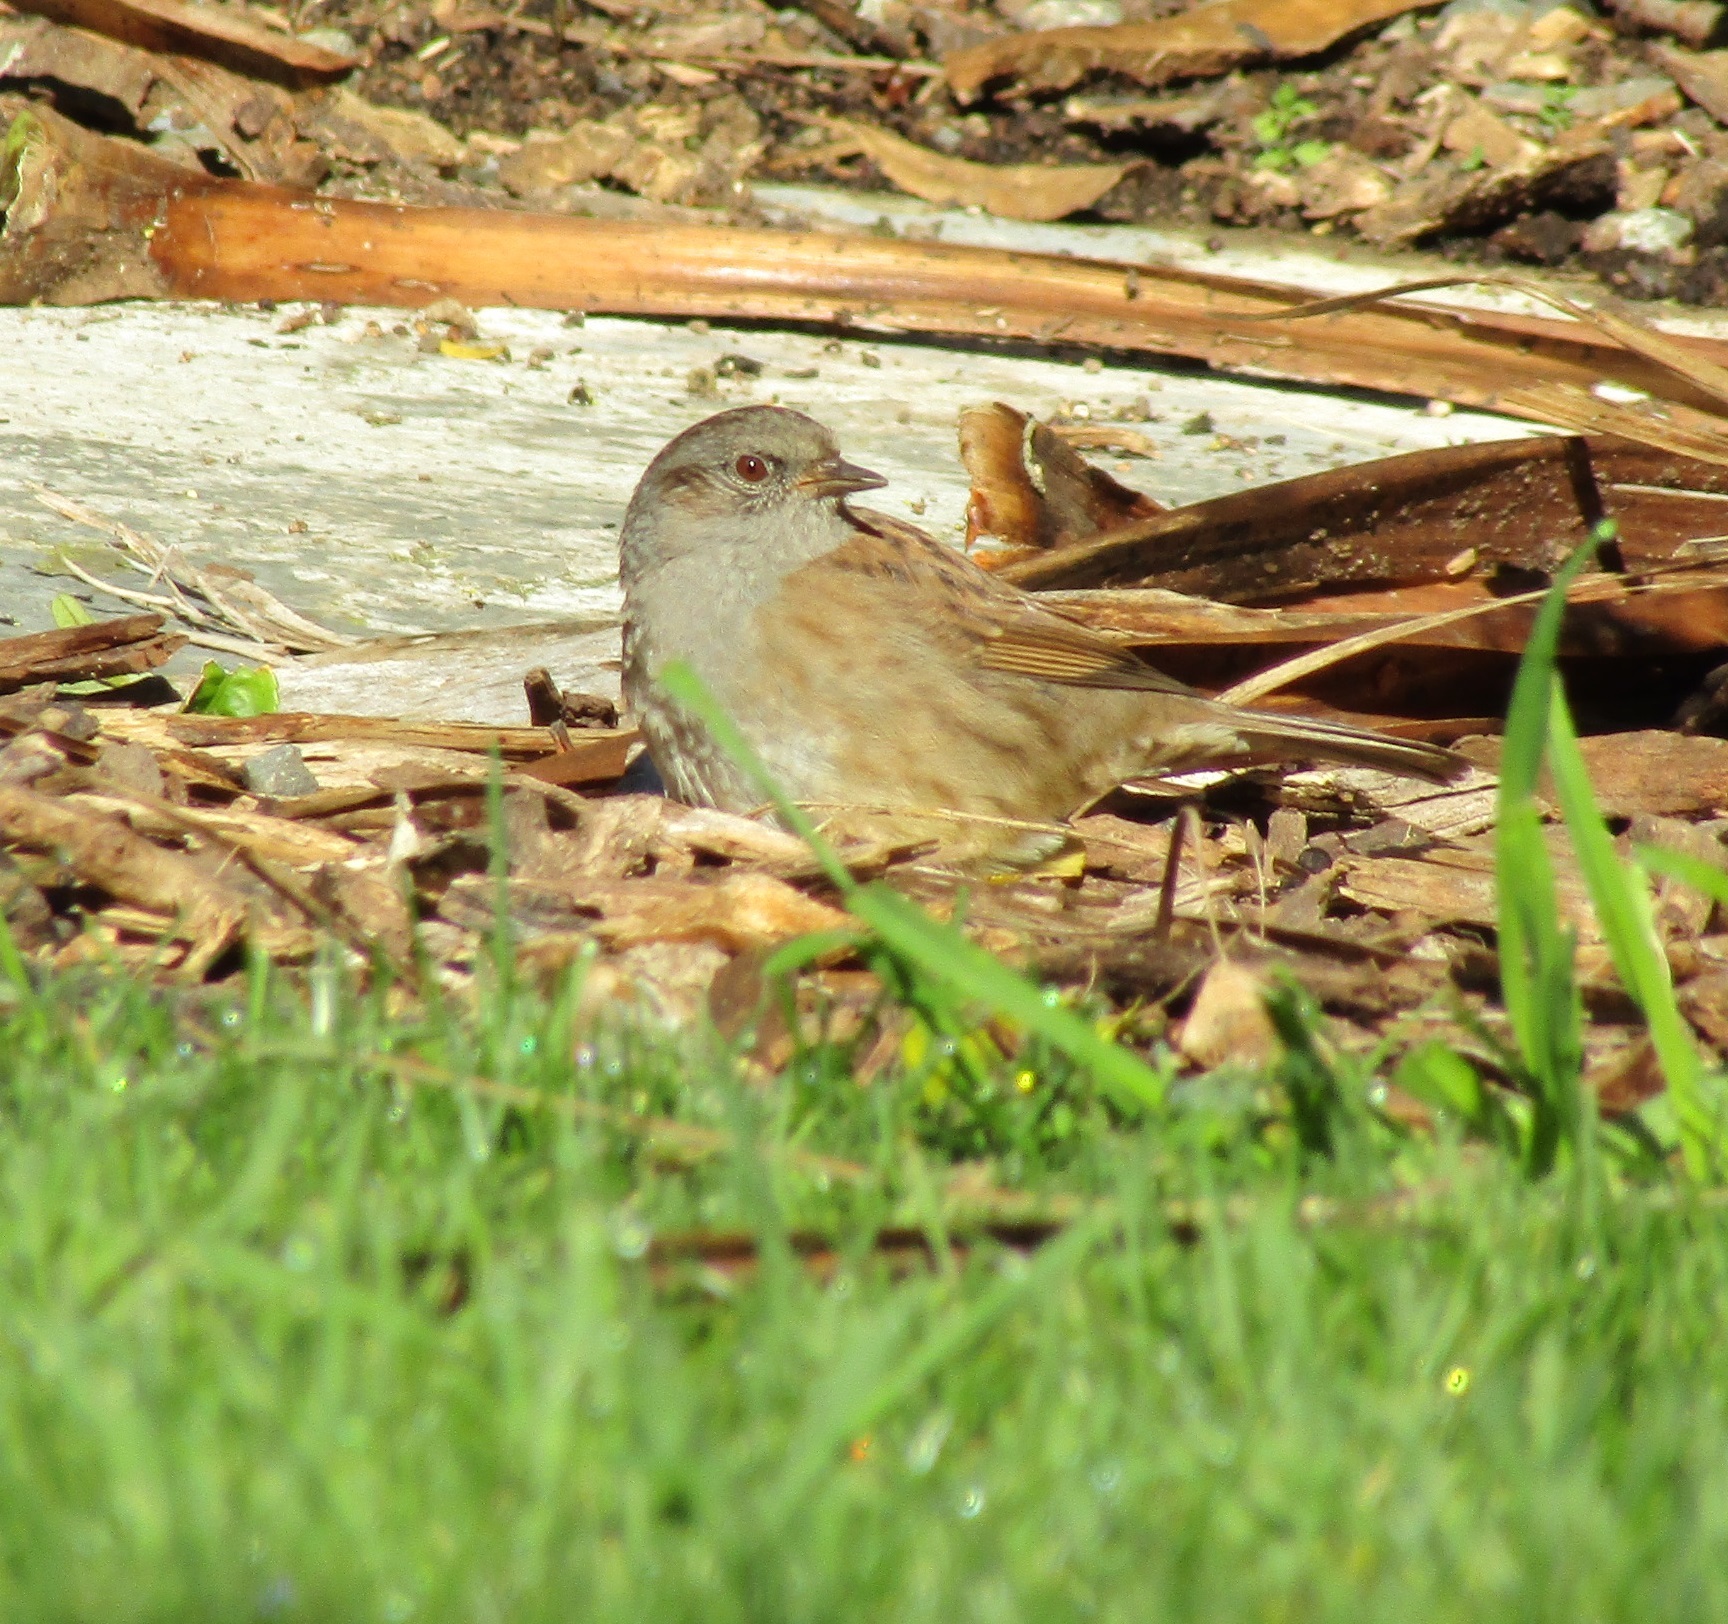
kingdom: Animalia
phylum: Chordata
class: Aves
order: Passeriformes
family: Prunellidae
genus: Prunella
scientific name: Prunella modularis
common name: Dunnock
